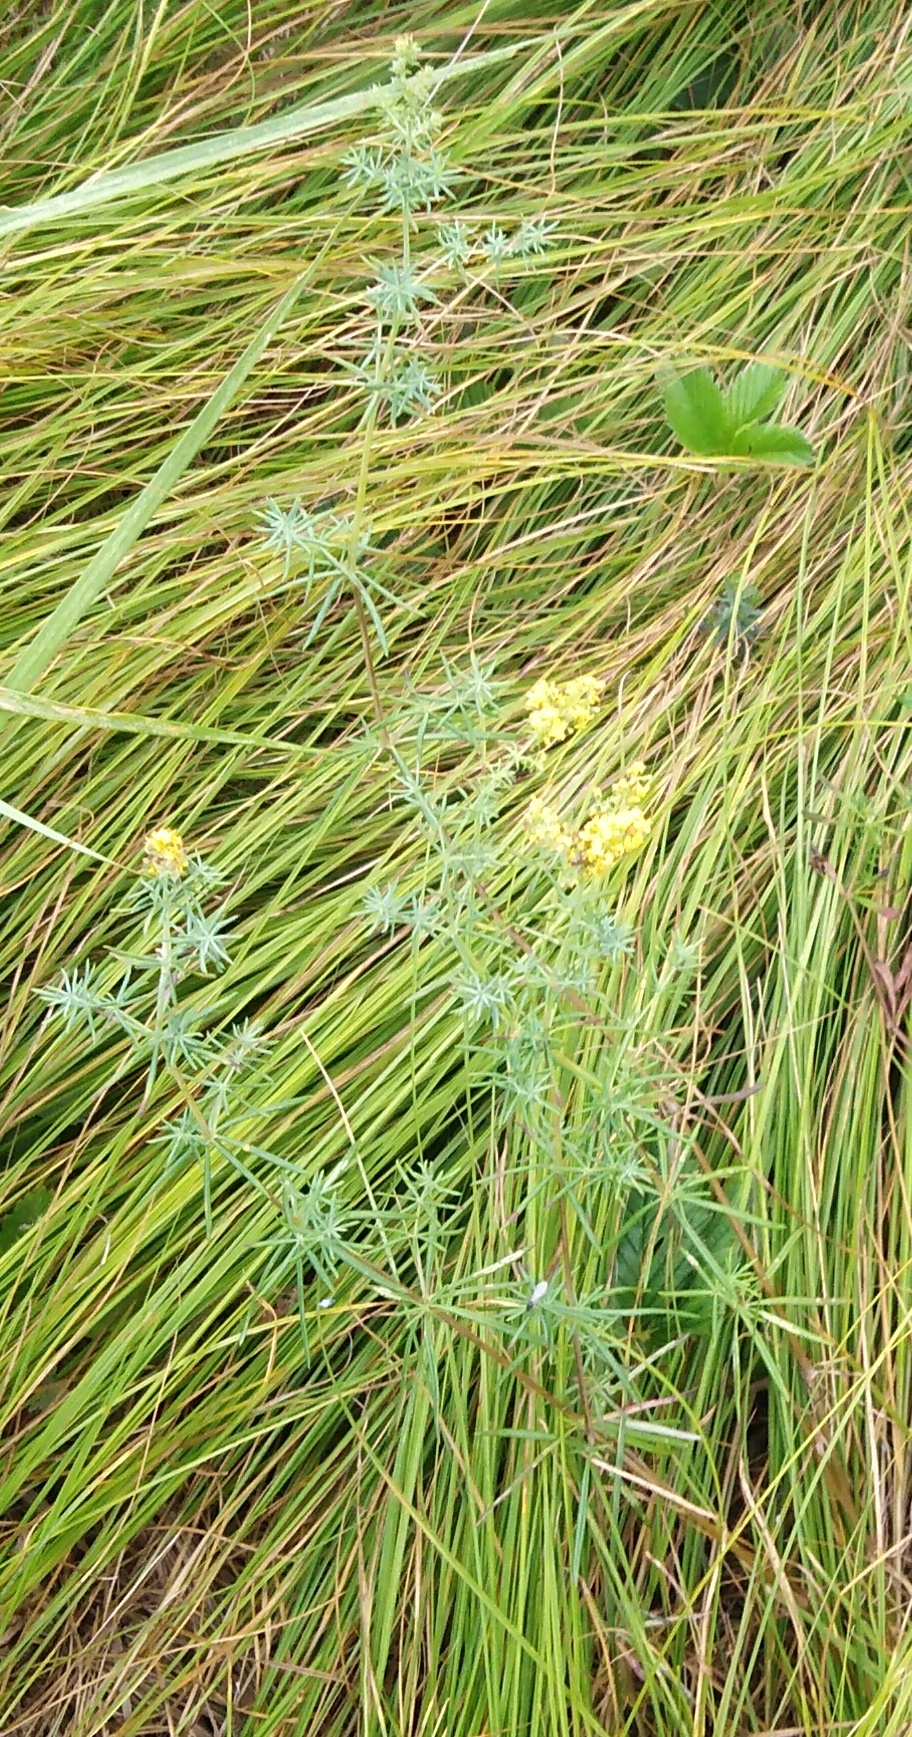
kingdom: Plantae
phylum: Tracheophyta
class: Magnoliopsida
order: Gentianales
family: Rubiaceae
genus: Galium
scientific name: Galium verum
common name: Lady's bedstraw
